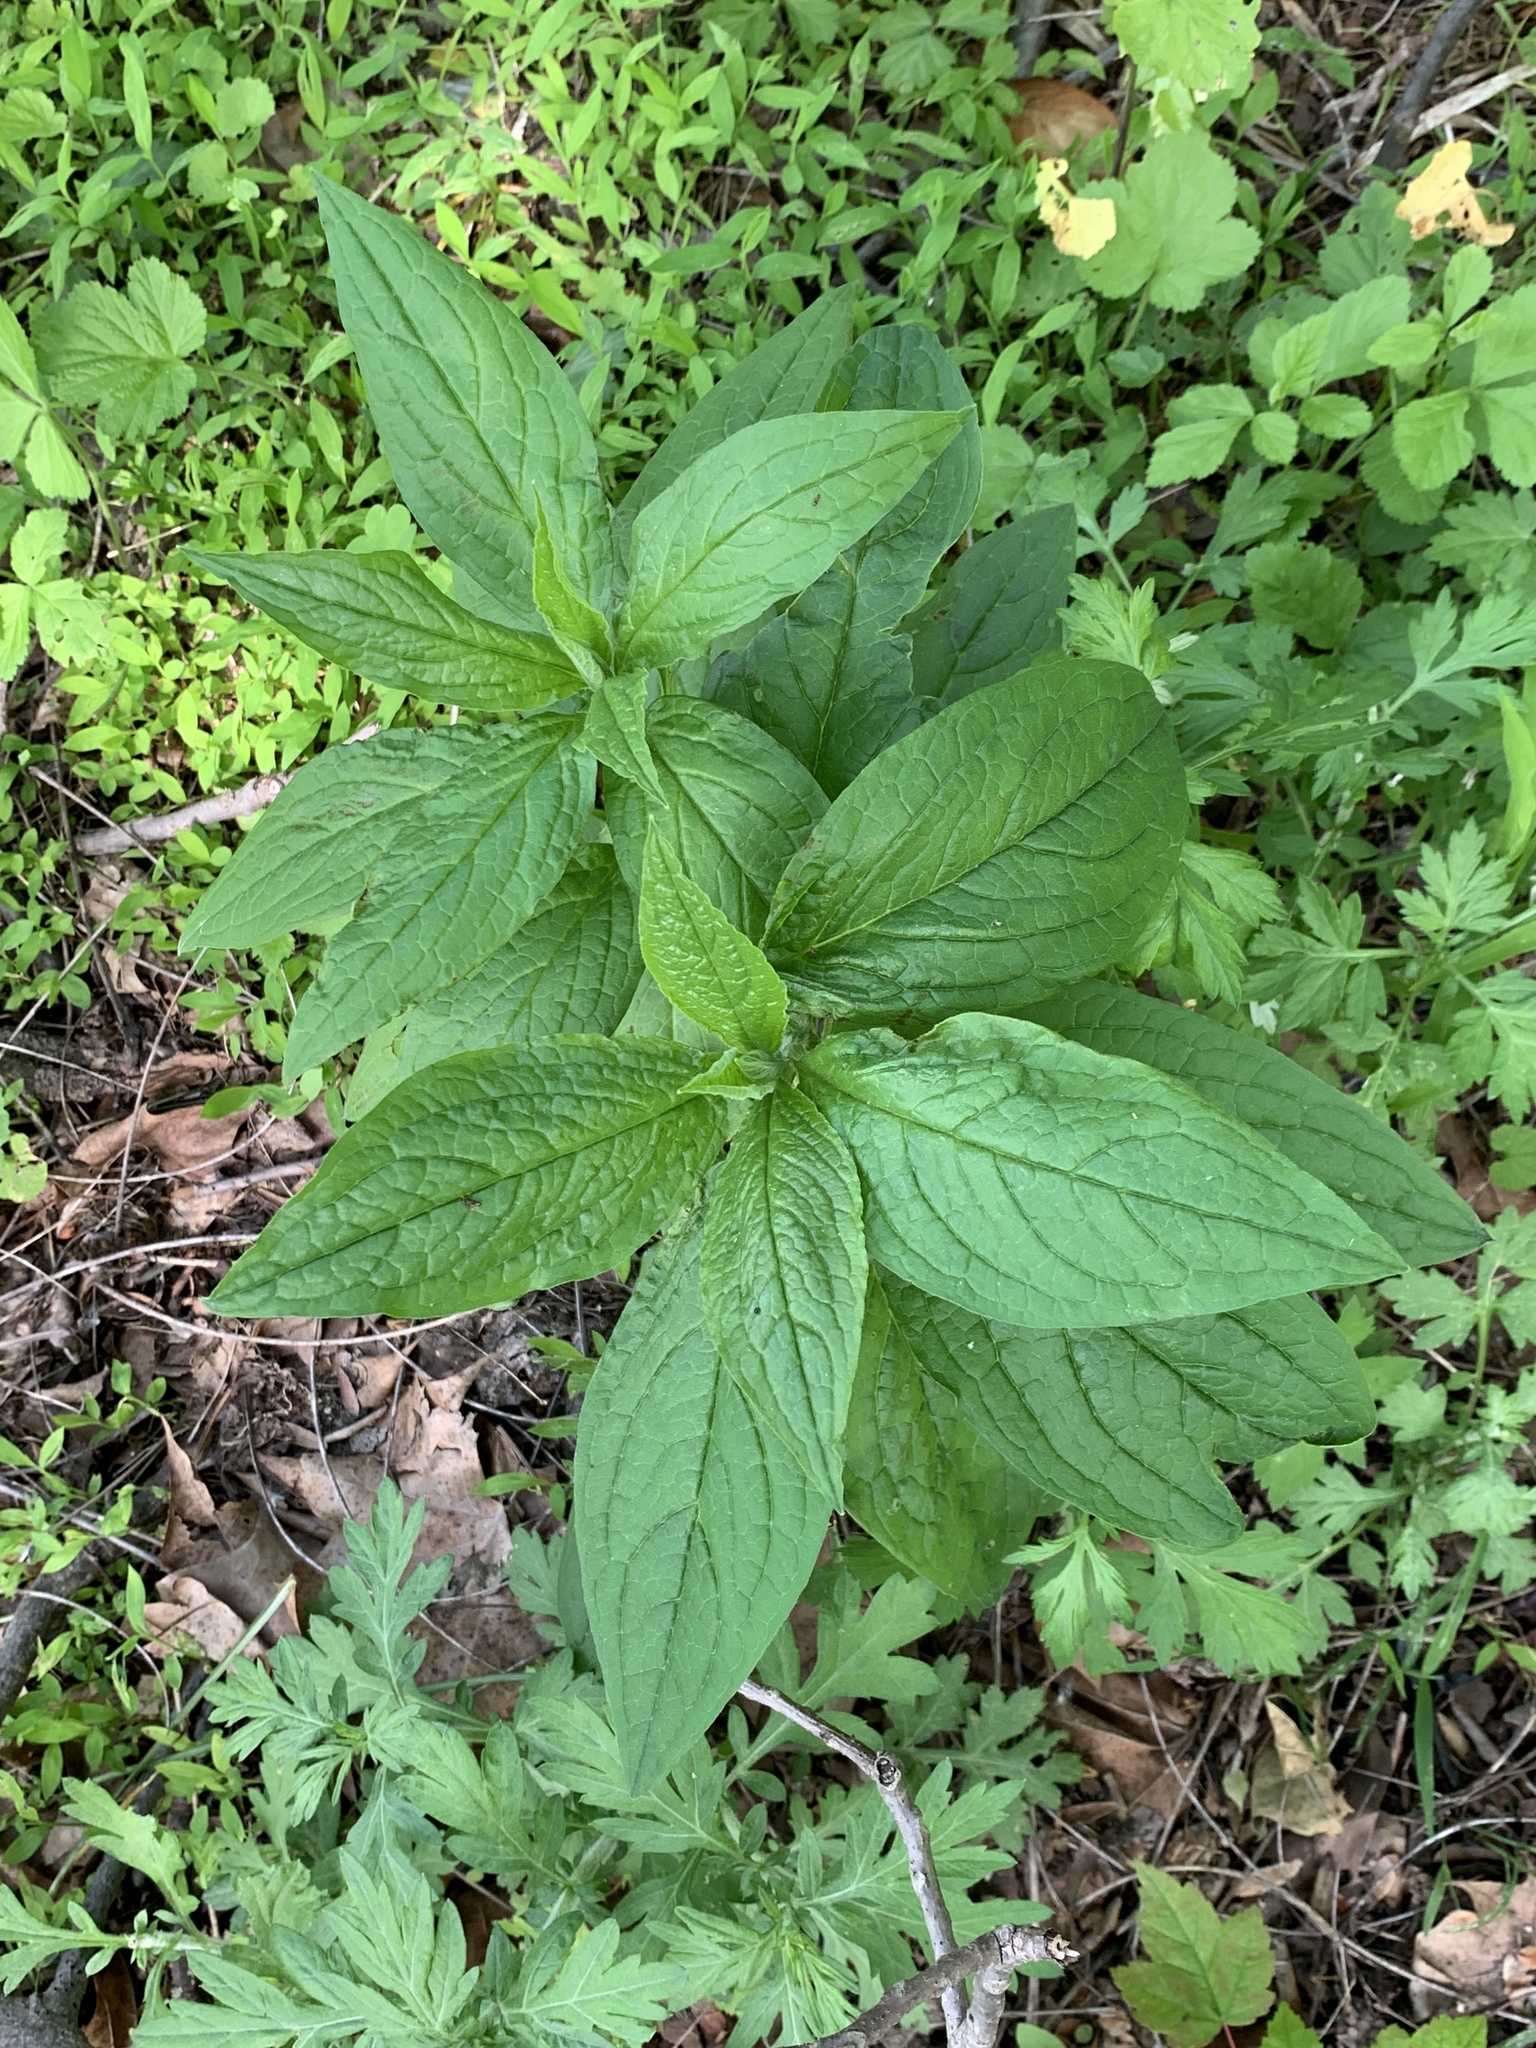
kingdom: Plantae
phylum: Tracheophyta
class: Magnoliopsida
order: Boraginales
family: Boraginaceae
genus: Hackelia
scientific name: Hackelia virginiana
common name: Beggar's-lice
